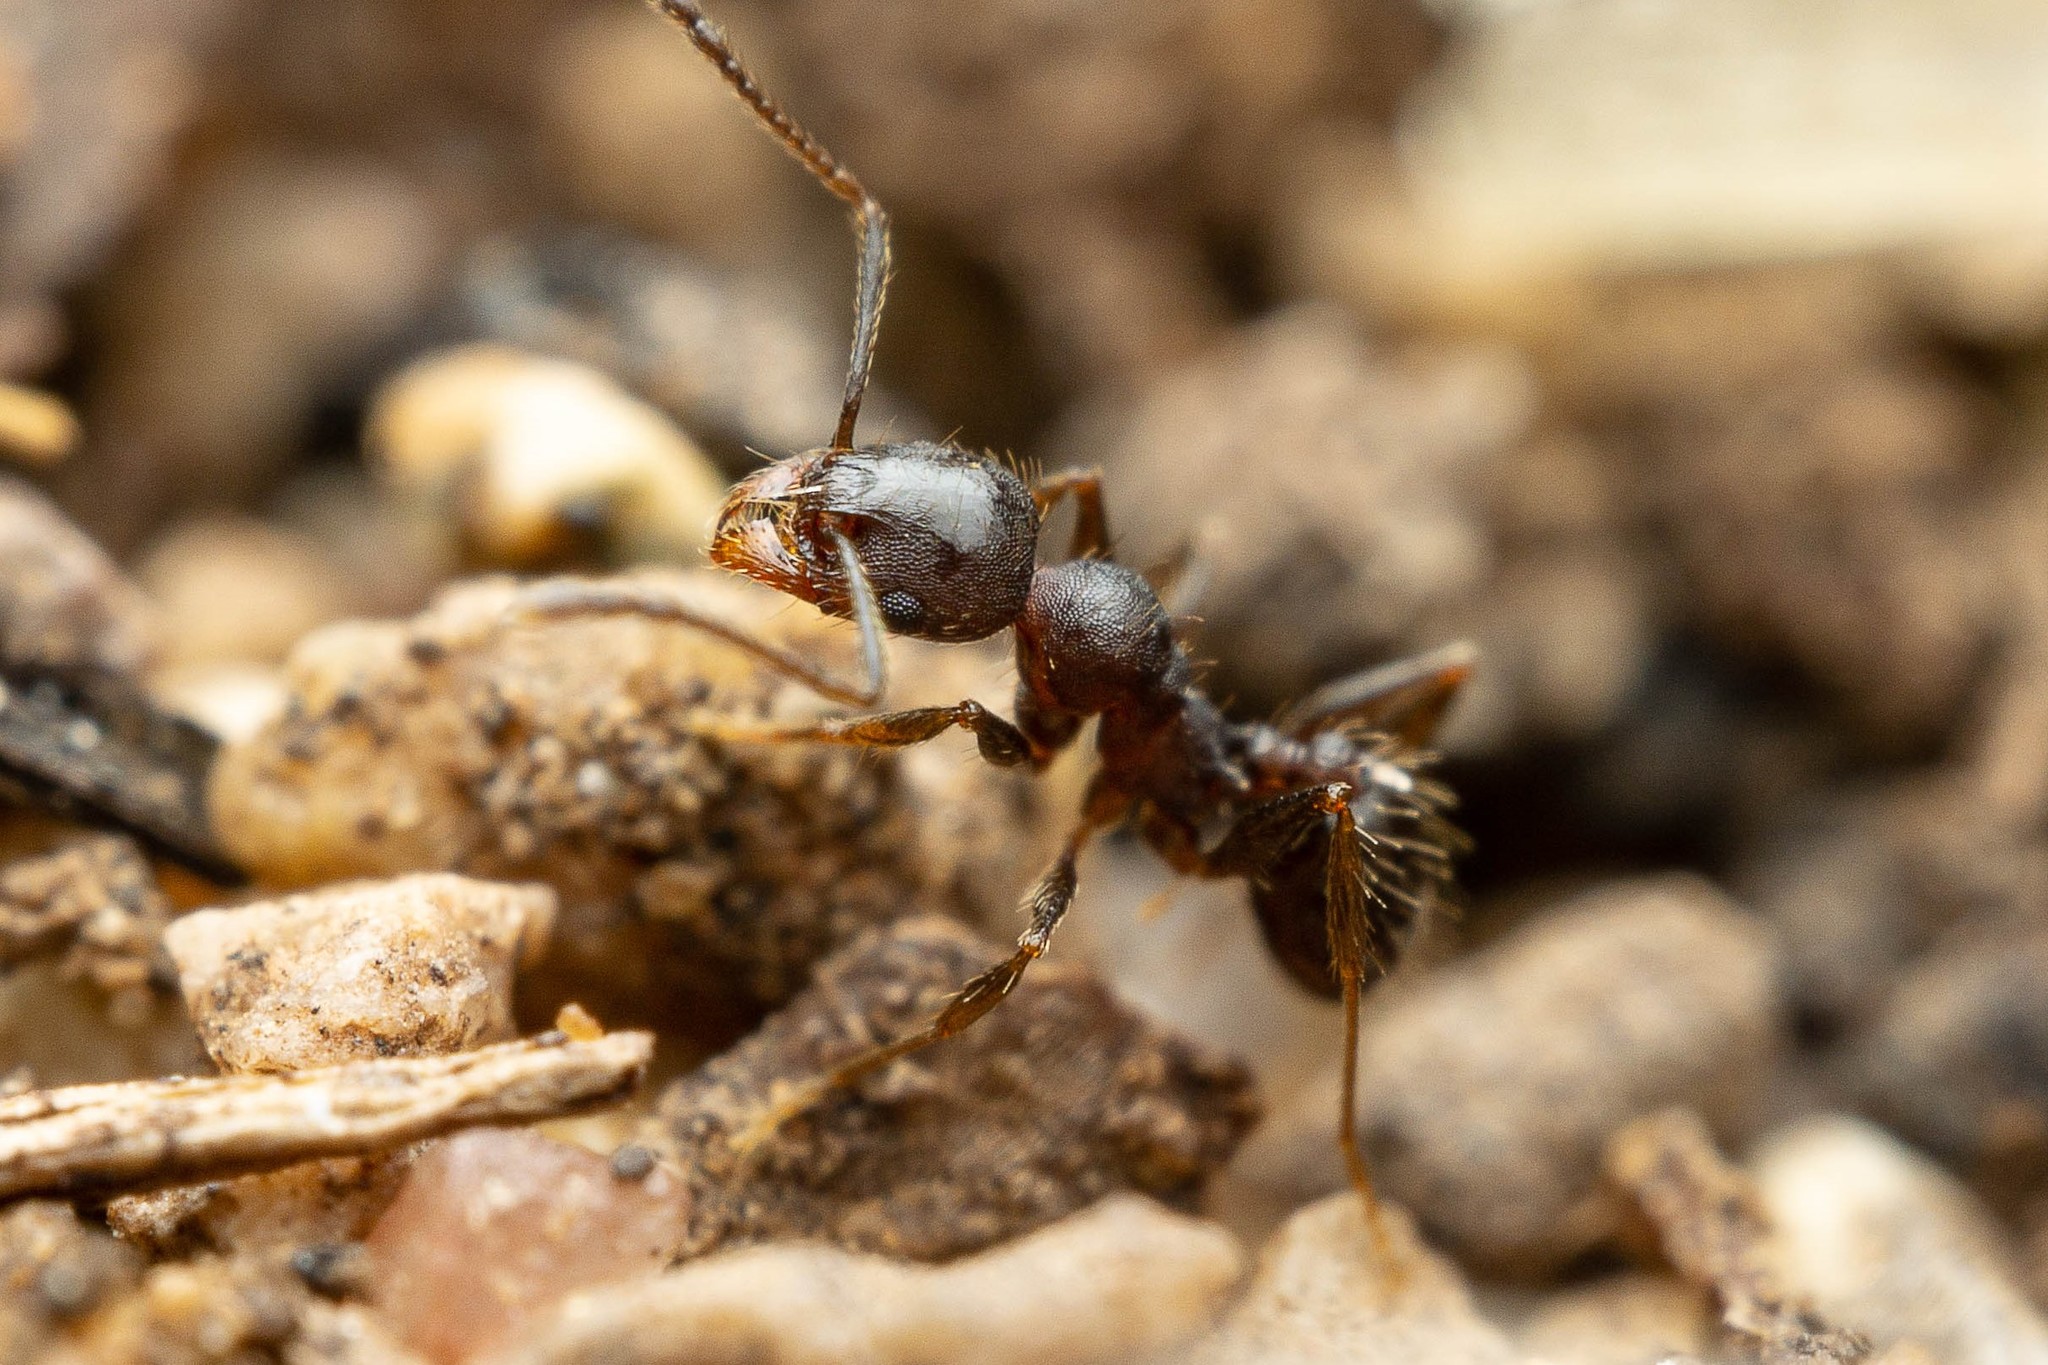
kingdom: Animalia
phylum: Arthropoda
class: Insecta
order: Hymenoptera
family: Formicidae
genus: Pheidole
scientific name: Pheidole sciophila
